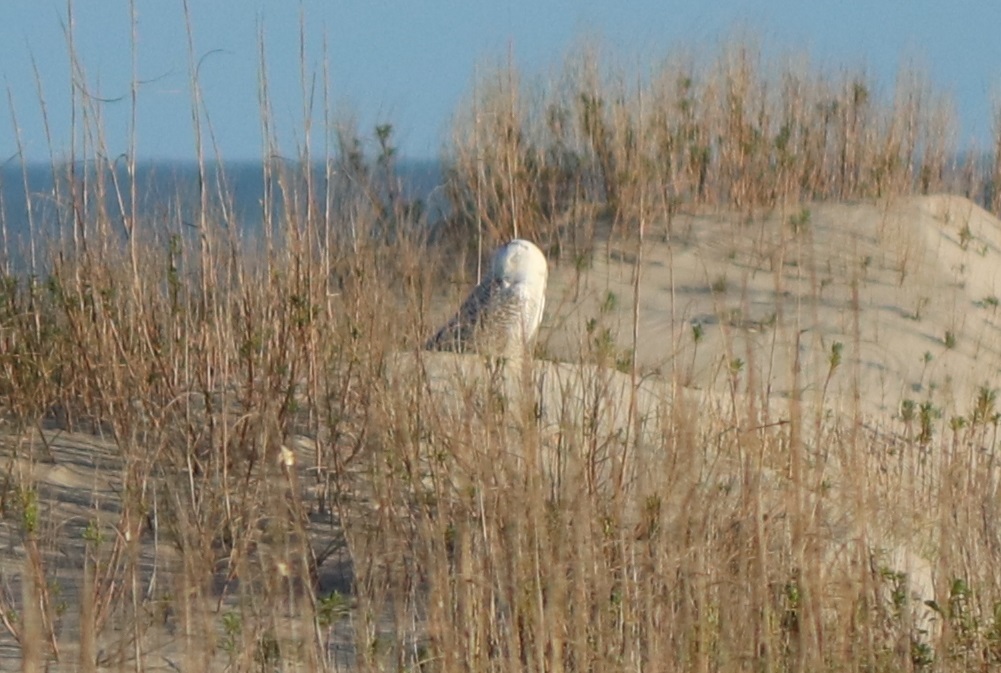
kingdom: Animalia
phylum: Chordata
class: Aves
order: Strigiformes
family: Strigidae
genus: Bubo
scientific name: Bubo scandiacus
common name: Snowy owl
